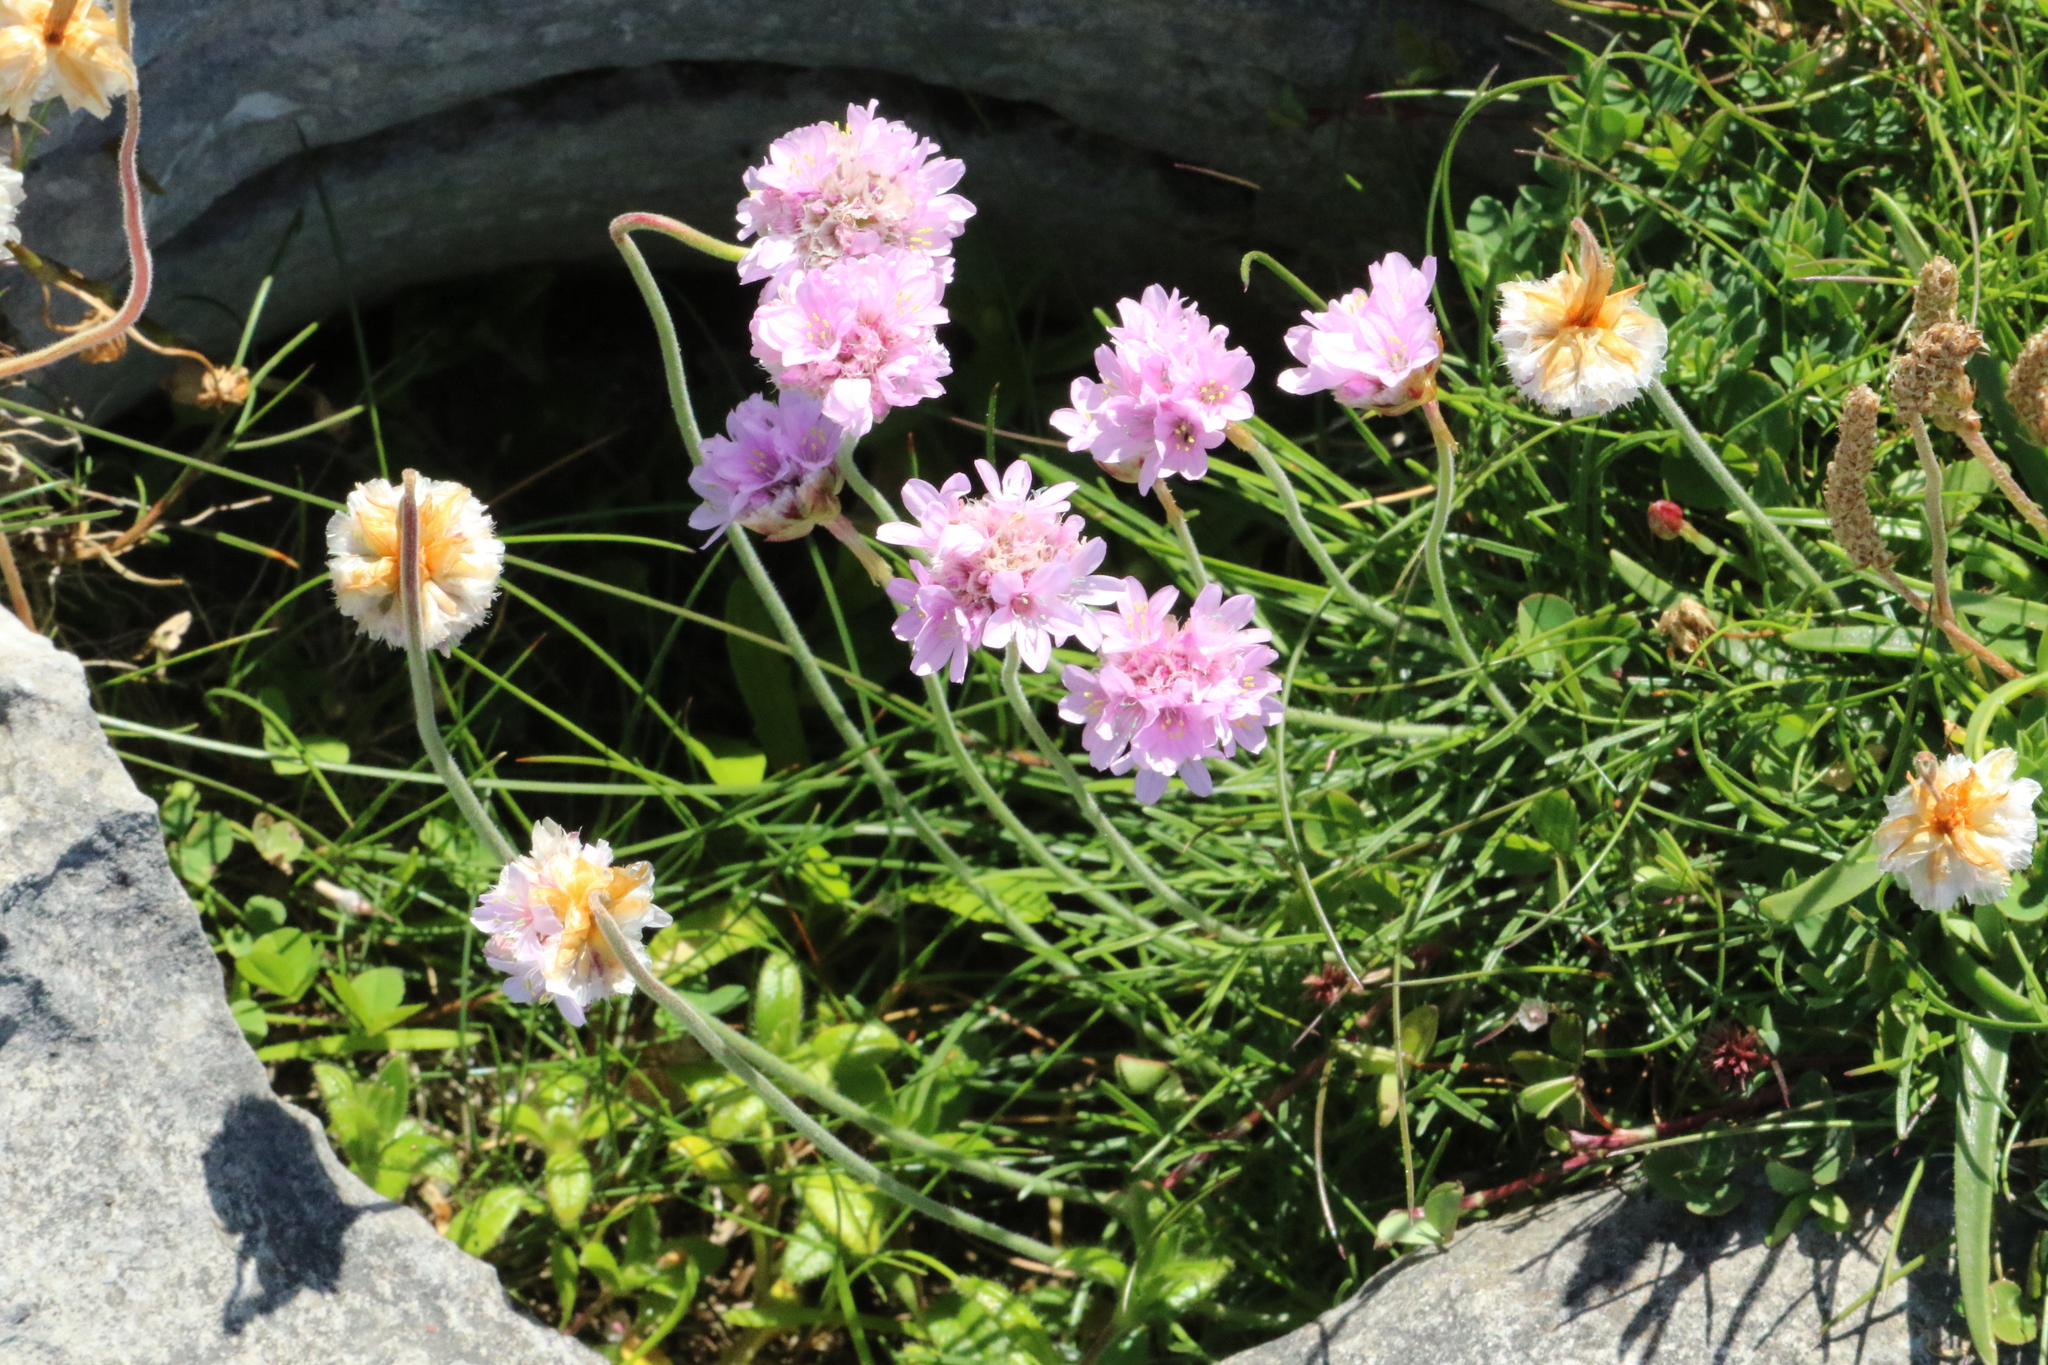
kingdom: Plantae
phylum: Tracheophyta
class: Magnoliopsida
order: Caryophyllales
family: Plumbaginaceae
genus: Armeria
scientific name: Armeria maritima
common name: Thrift
